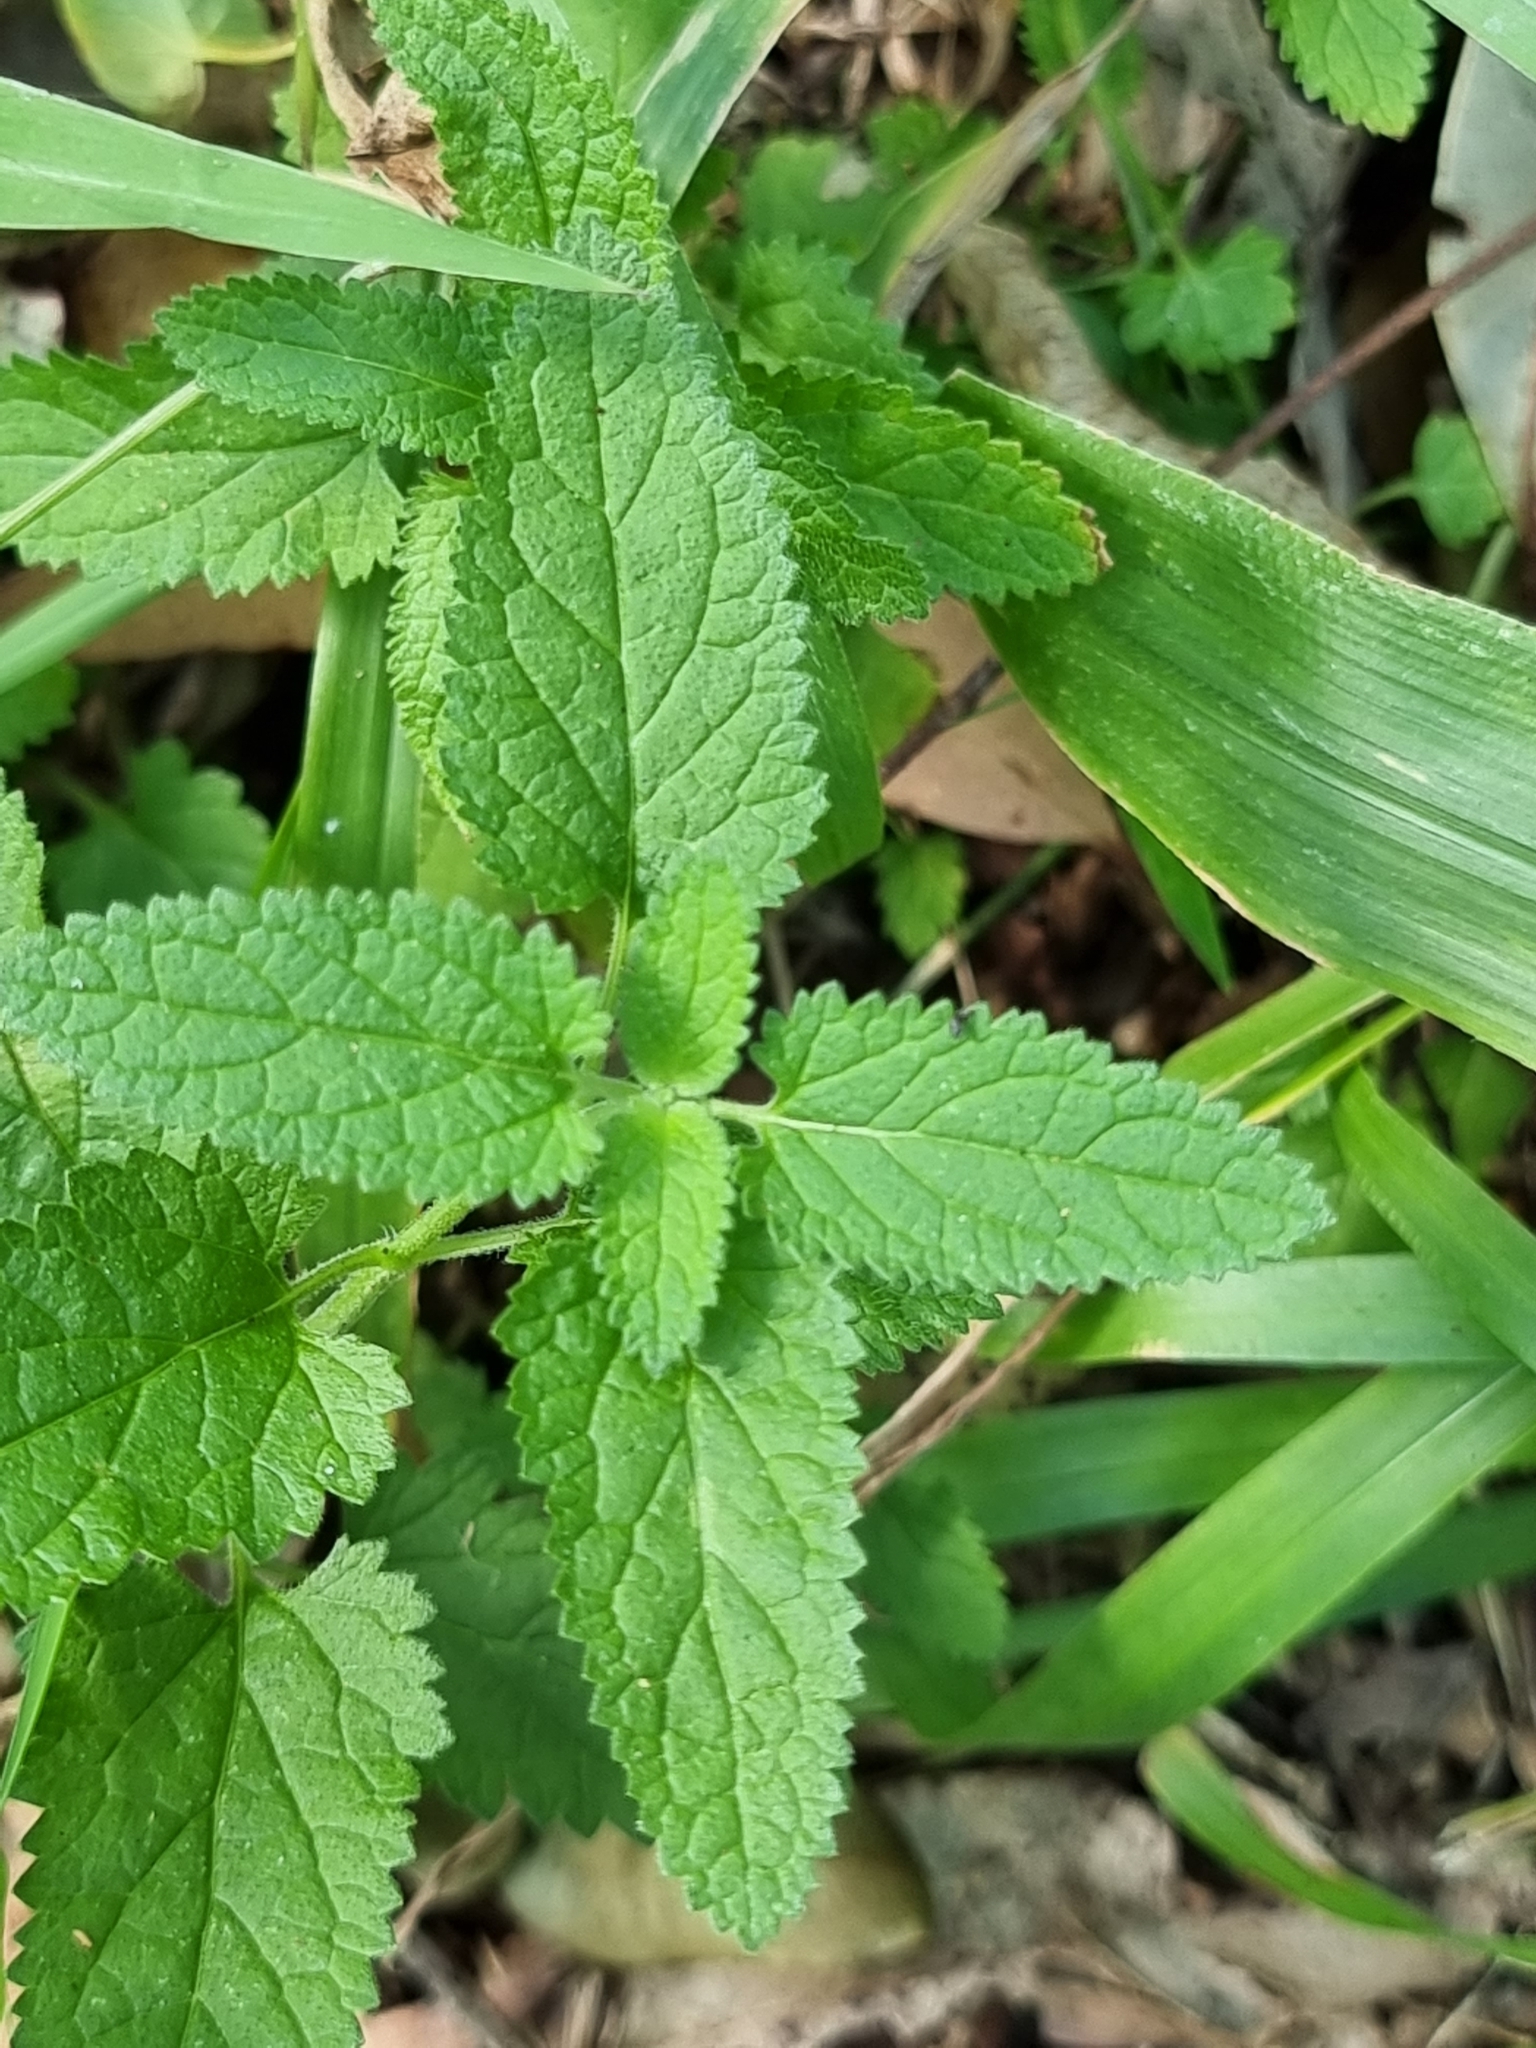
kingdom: Plantae
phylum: Tracheophyta
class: Magnoliopsida
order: Lamiales
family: Lamiaceae
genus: Teucrium
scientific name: Teucrium argutum
